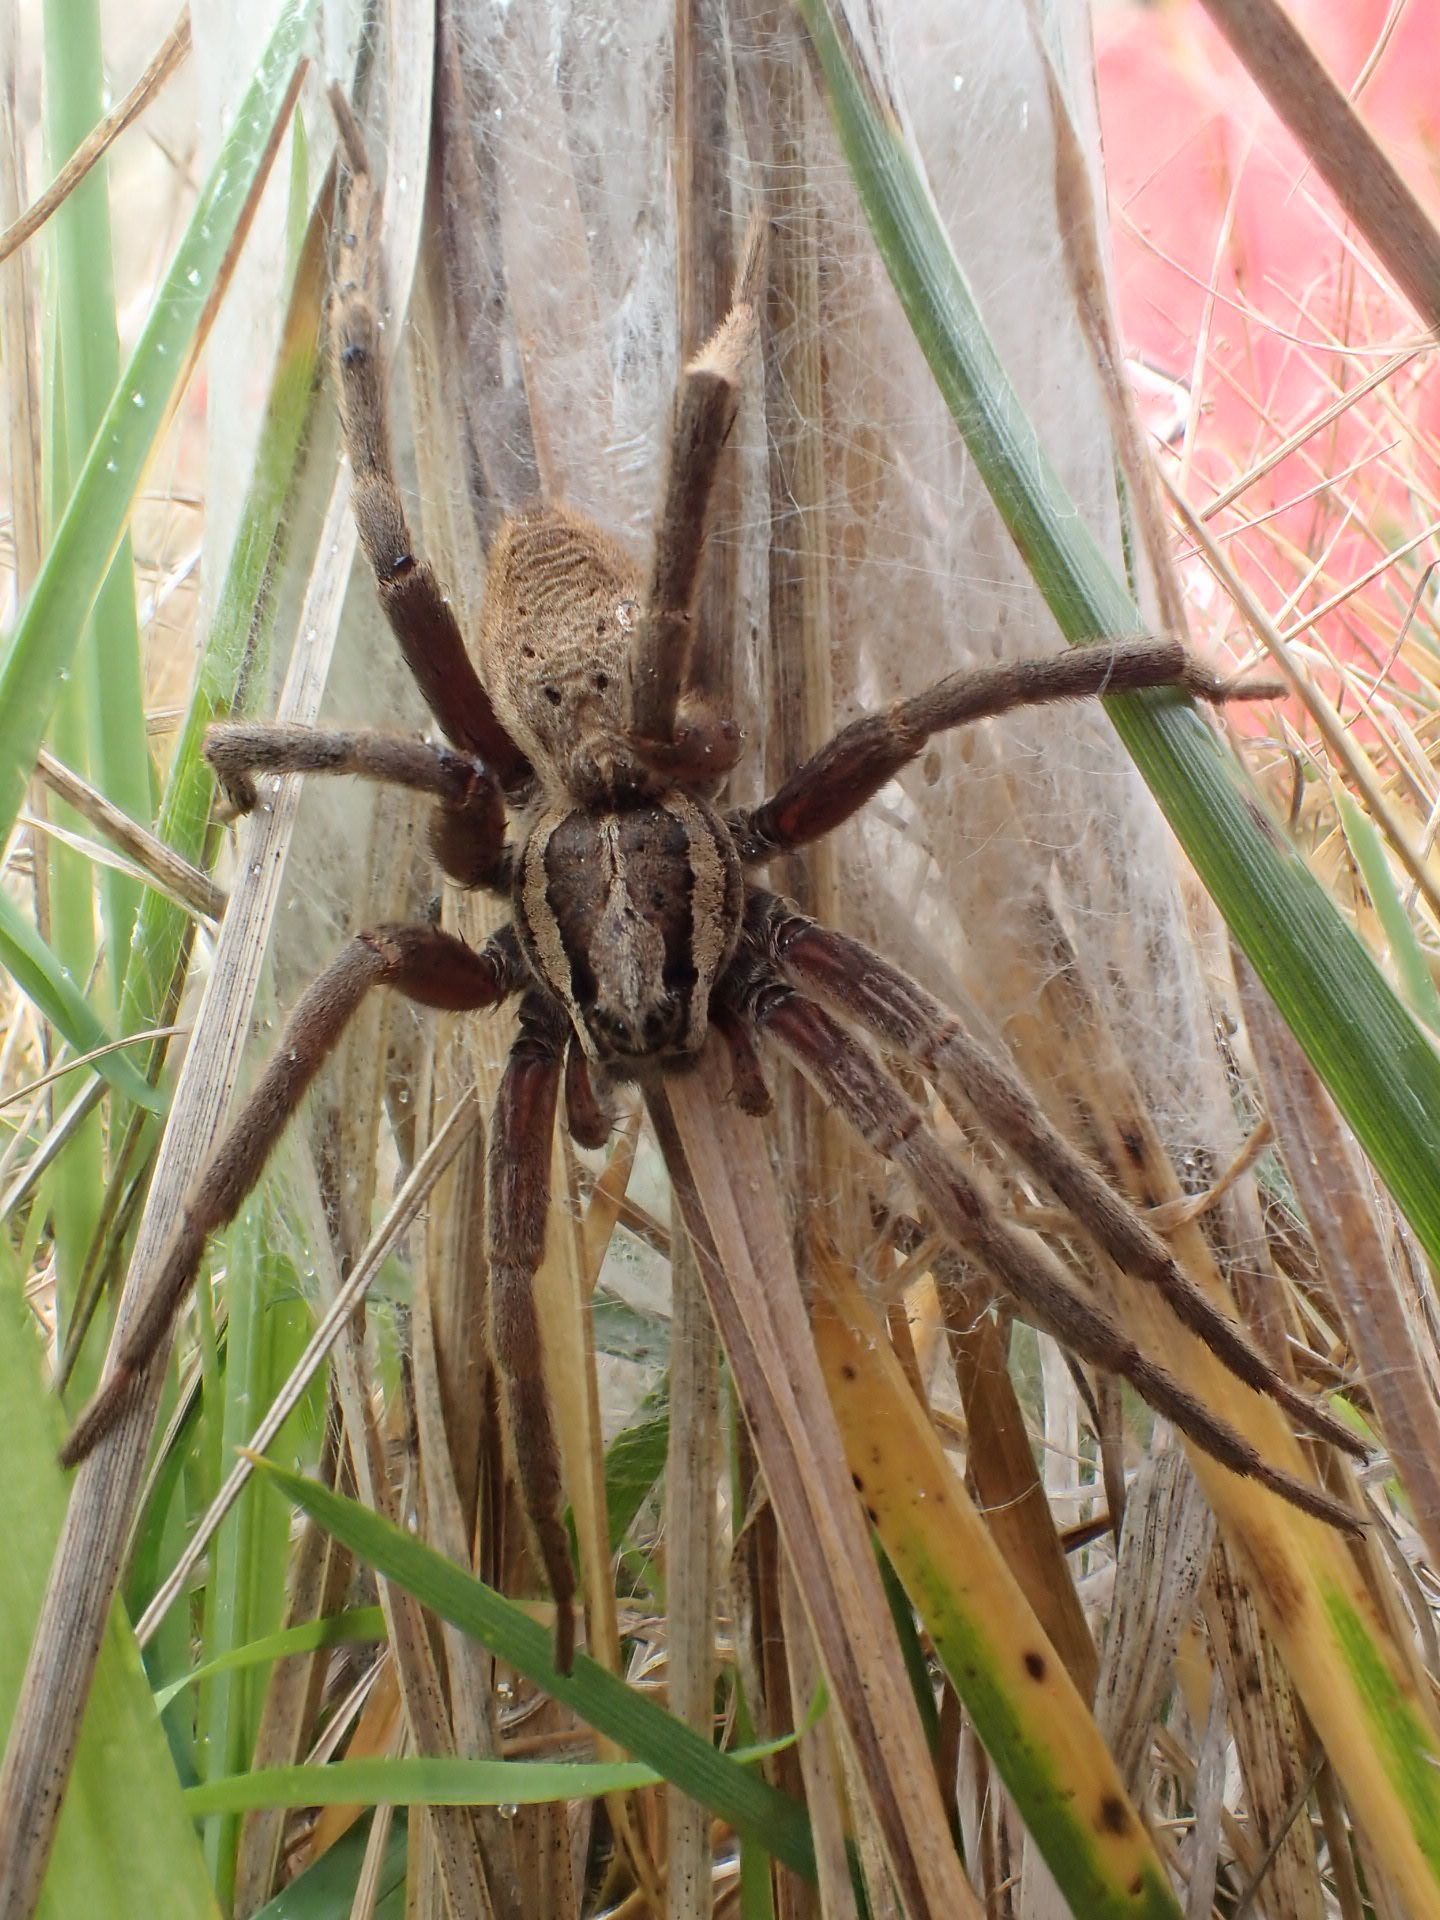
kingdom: Animalia
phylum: Arthropoda
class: Arachnida
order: Araneae
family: Pisauridae
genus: Dolomedes
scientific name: Dolomedes minor
